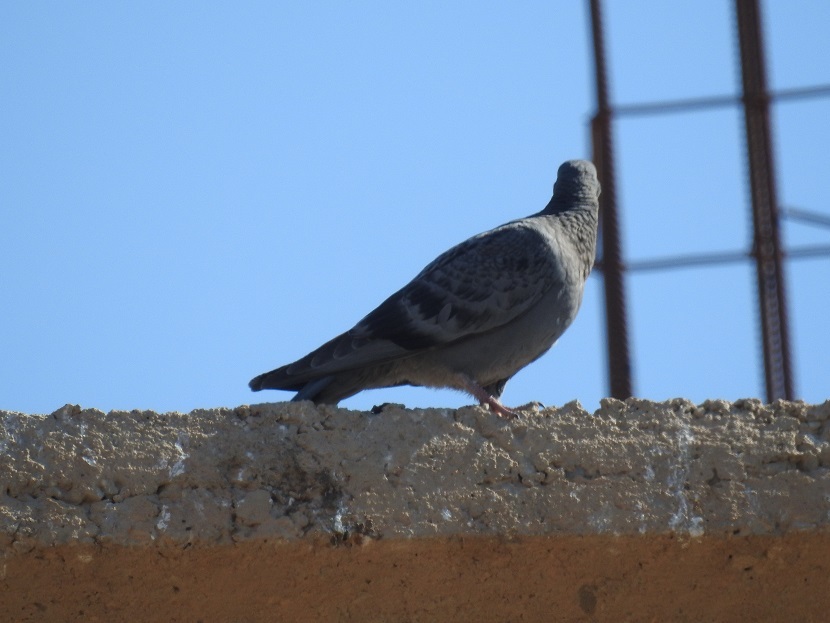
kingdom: Animalia
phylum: Chordata
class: Aves
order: Columbiformes
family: Columbidae
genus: Columba
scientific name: Columba livia
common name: Rock pigeon
